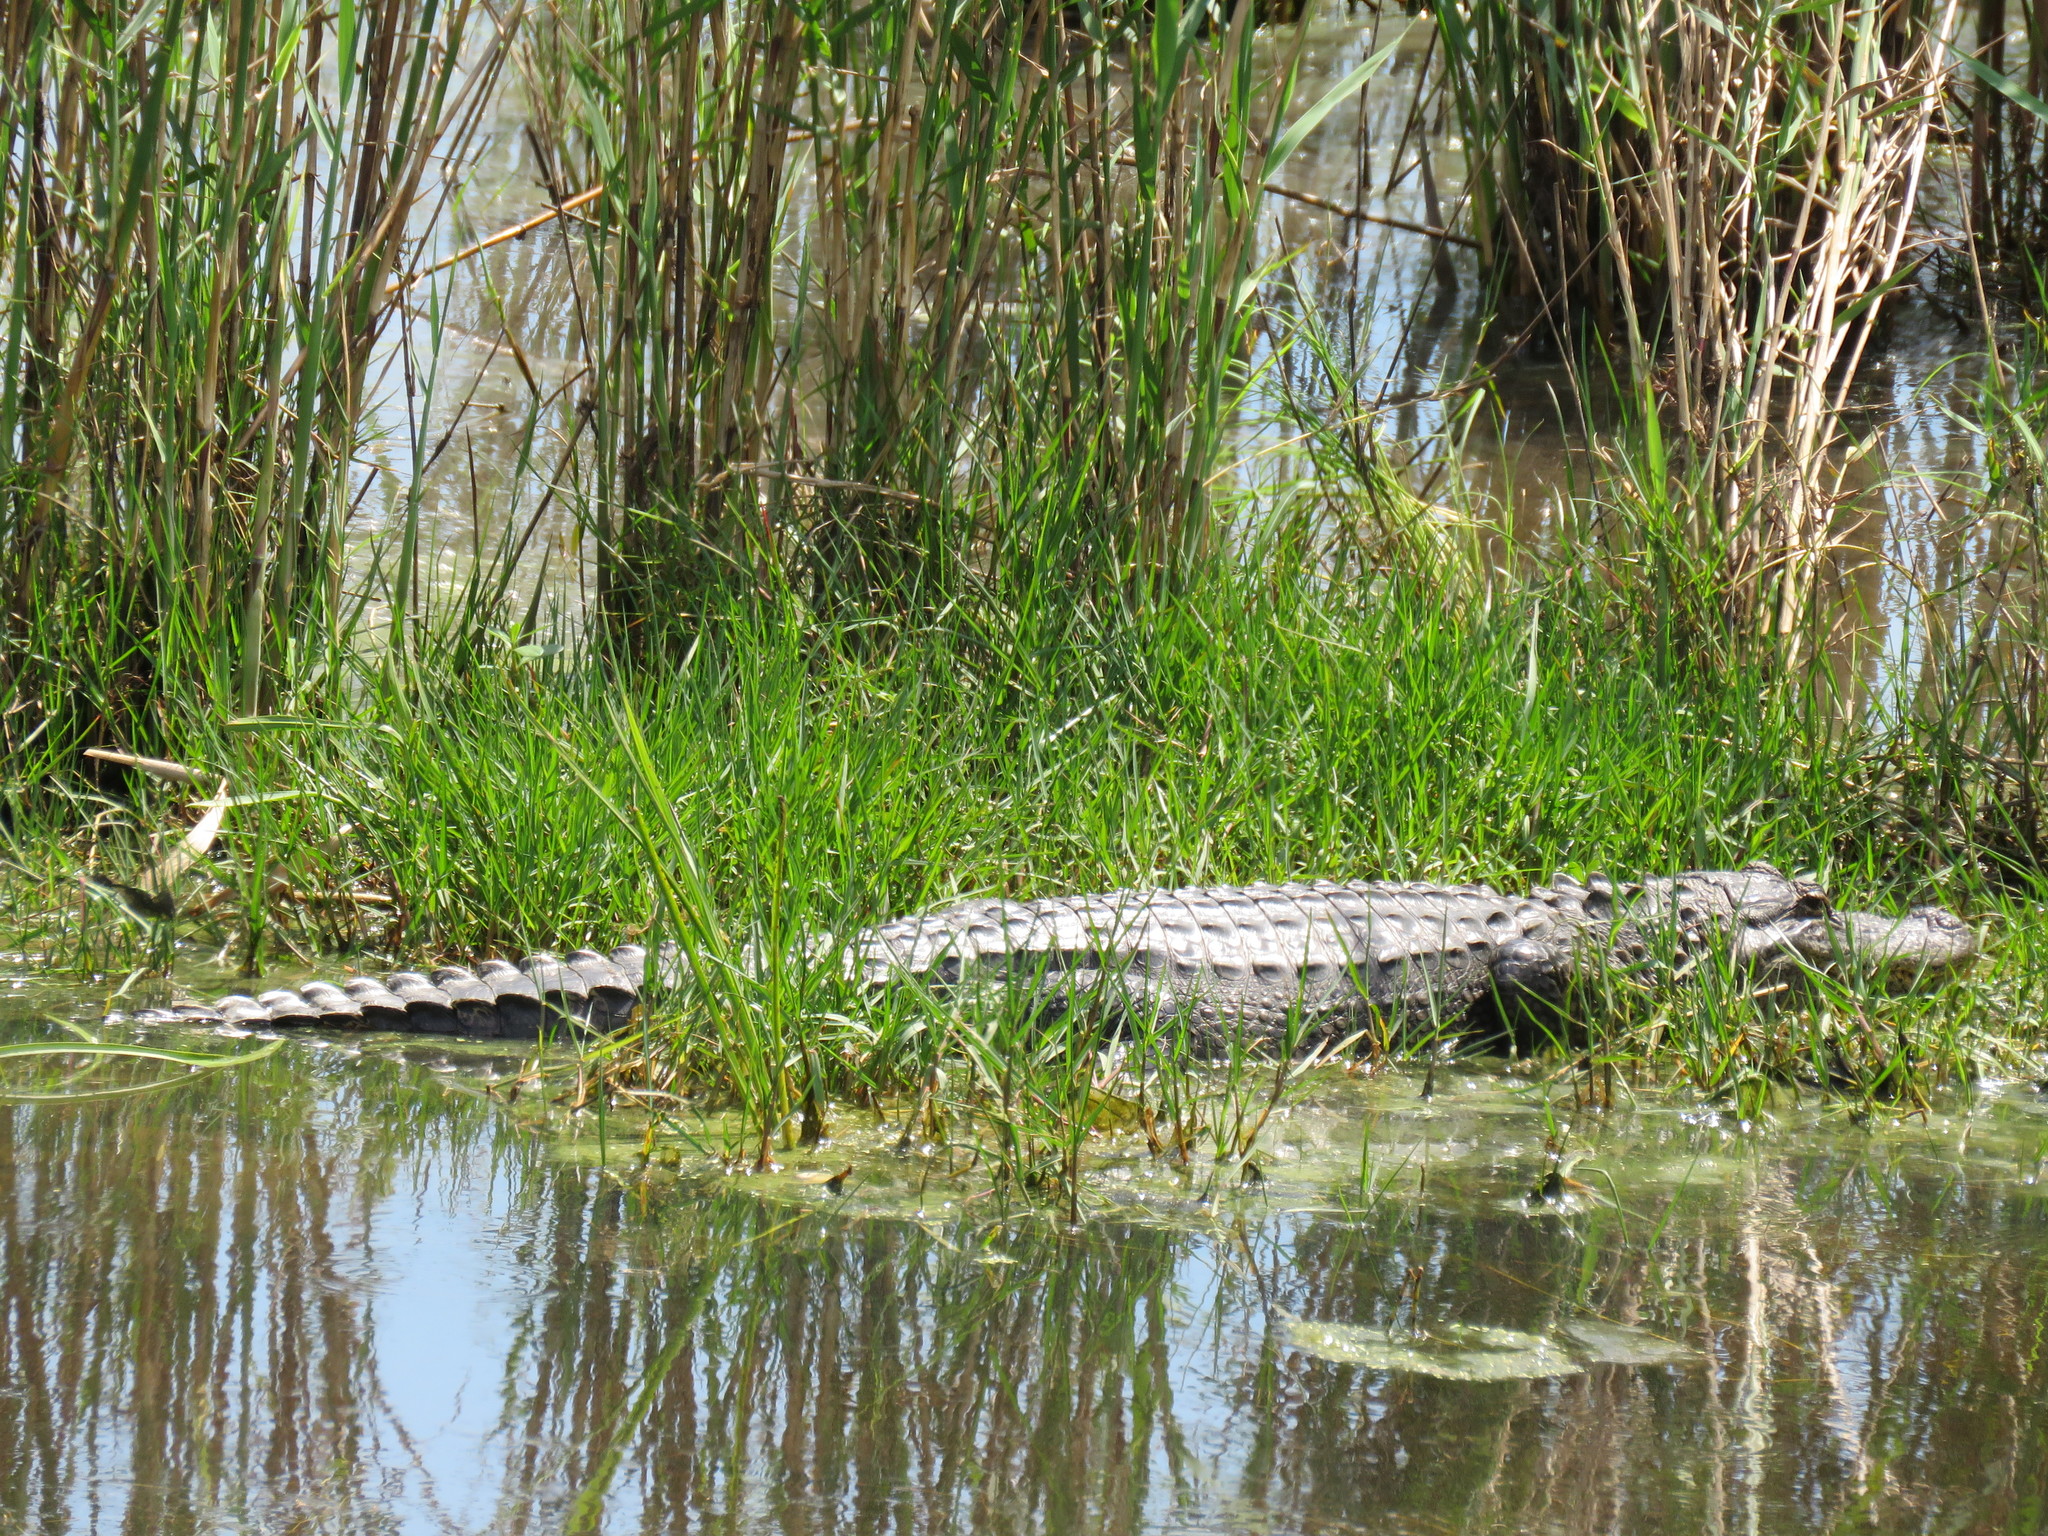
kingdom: Animalia
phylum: Chordata
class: Crocodylia
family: Alligatoridae
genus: Alligator
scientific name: Alligator mississippiensis
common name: American alligator
